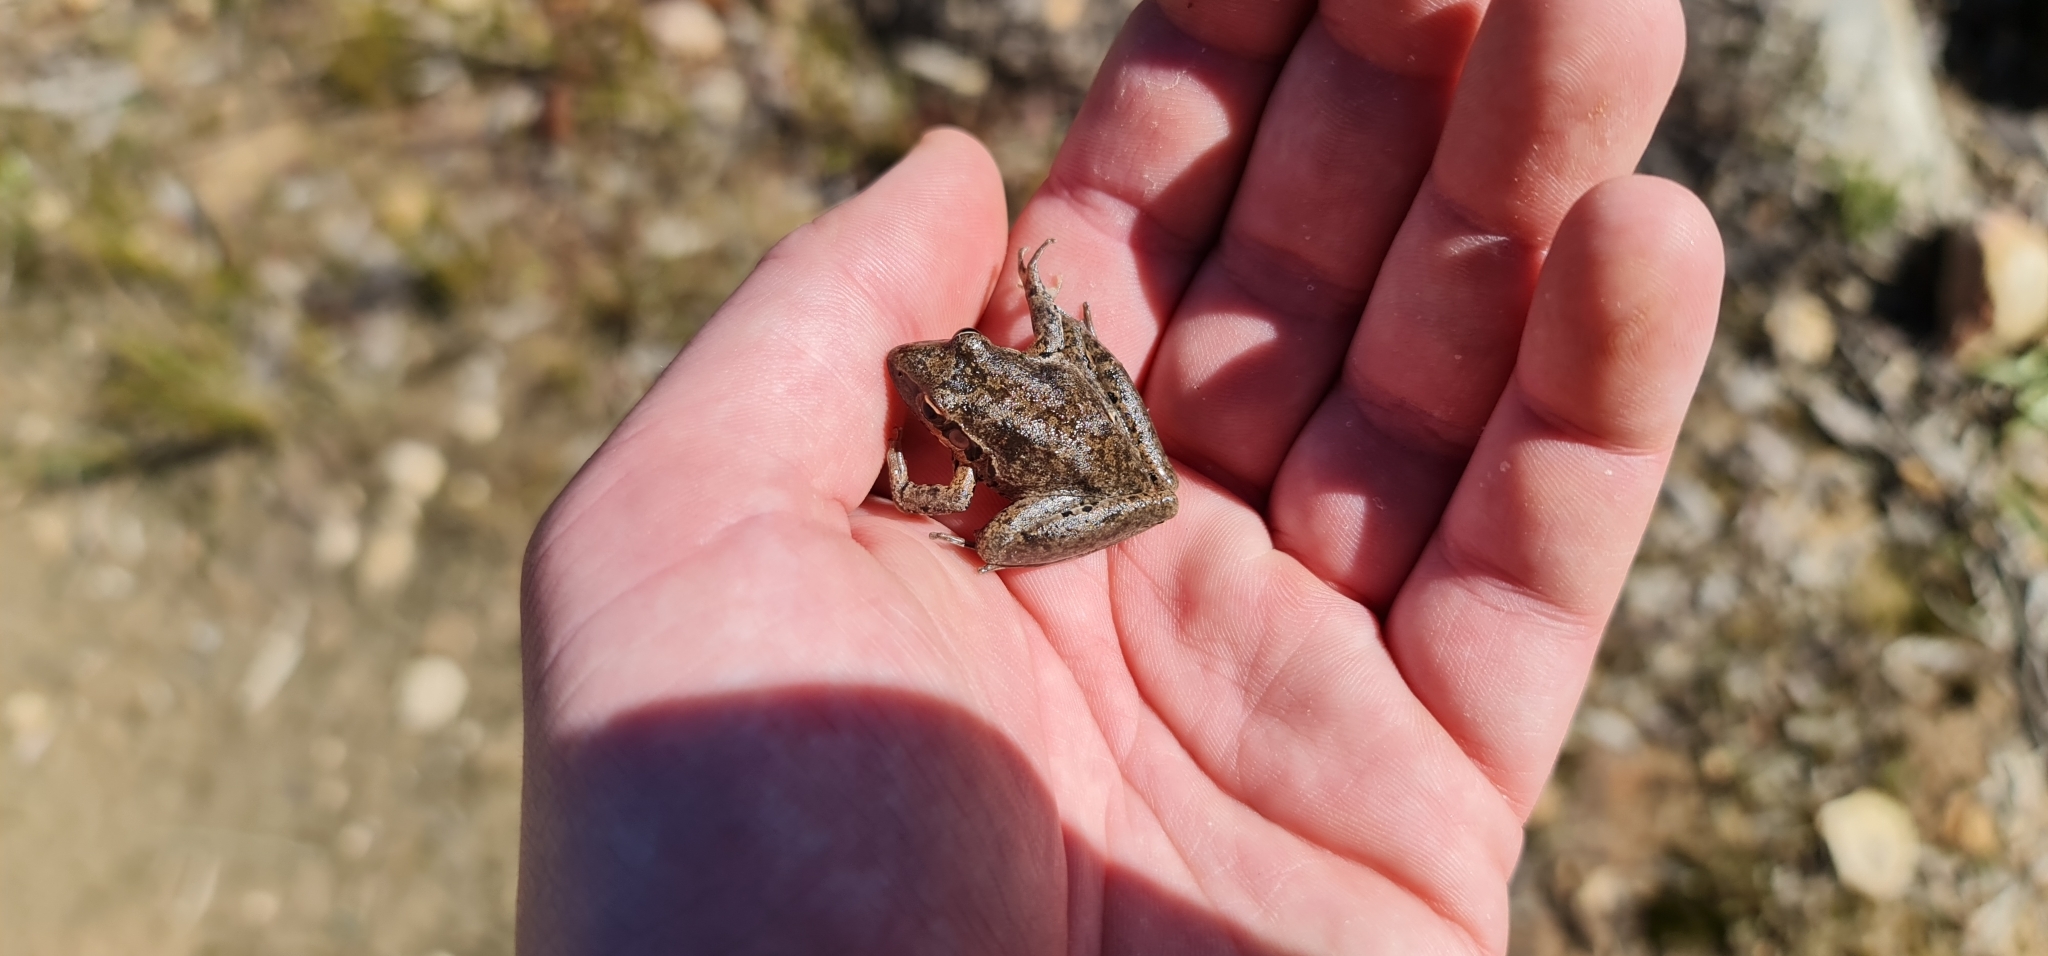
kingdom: Animalia
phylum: Chordata
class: Amphibia
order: Anura
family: Pelodryadidae
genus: Litoria
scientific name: Litoria latopalmata
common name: Broad-palmed rocket frog
